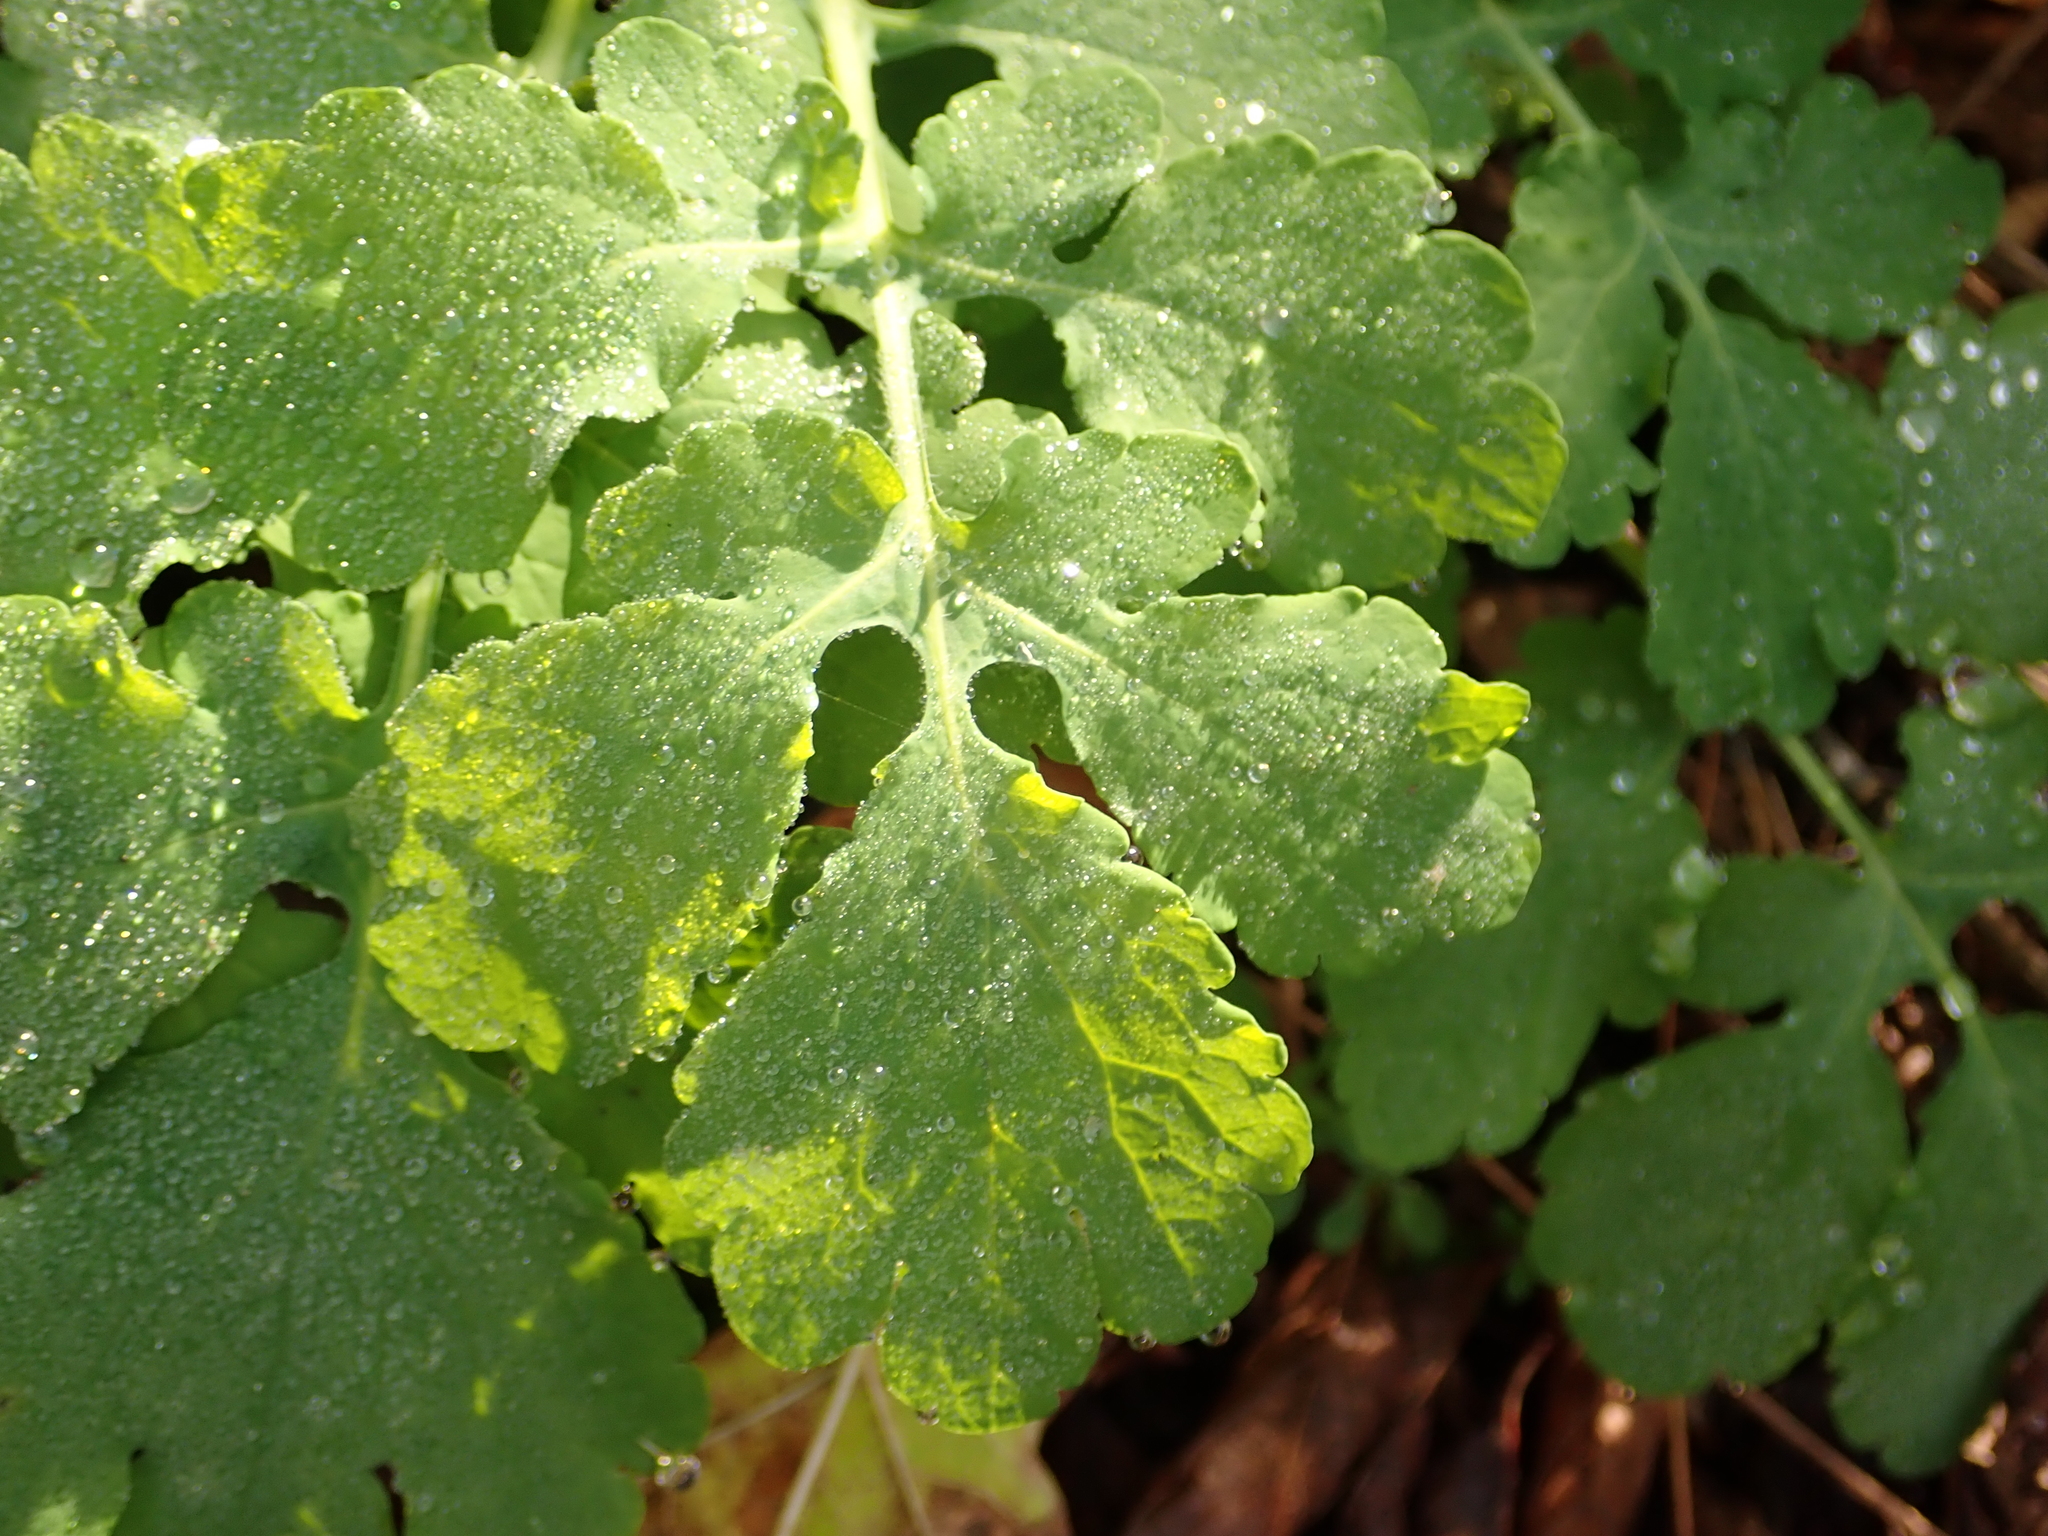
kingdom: Plantae
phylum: Tracheophyta
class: Magnoliopsida
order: Ranunculales
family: Papaveraceae
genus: Chelidonium
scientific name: Chelidonium majus
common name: Greater celandine
